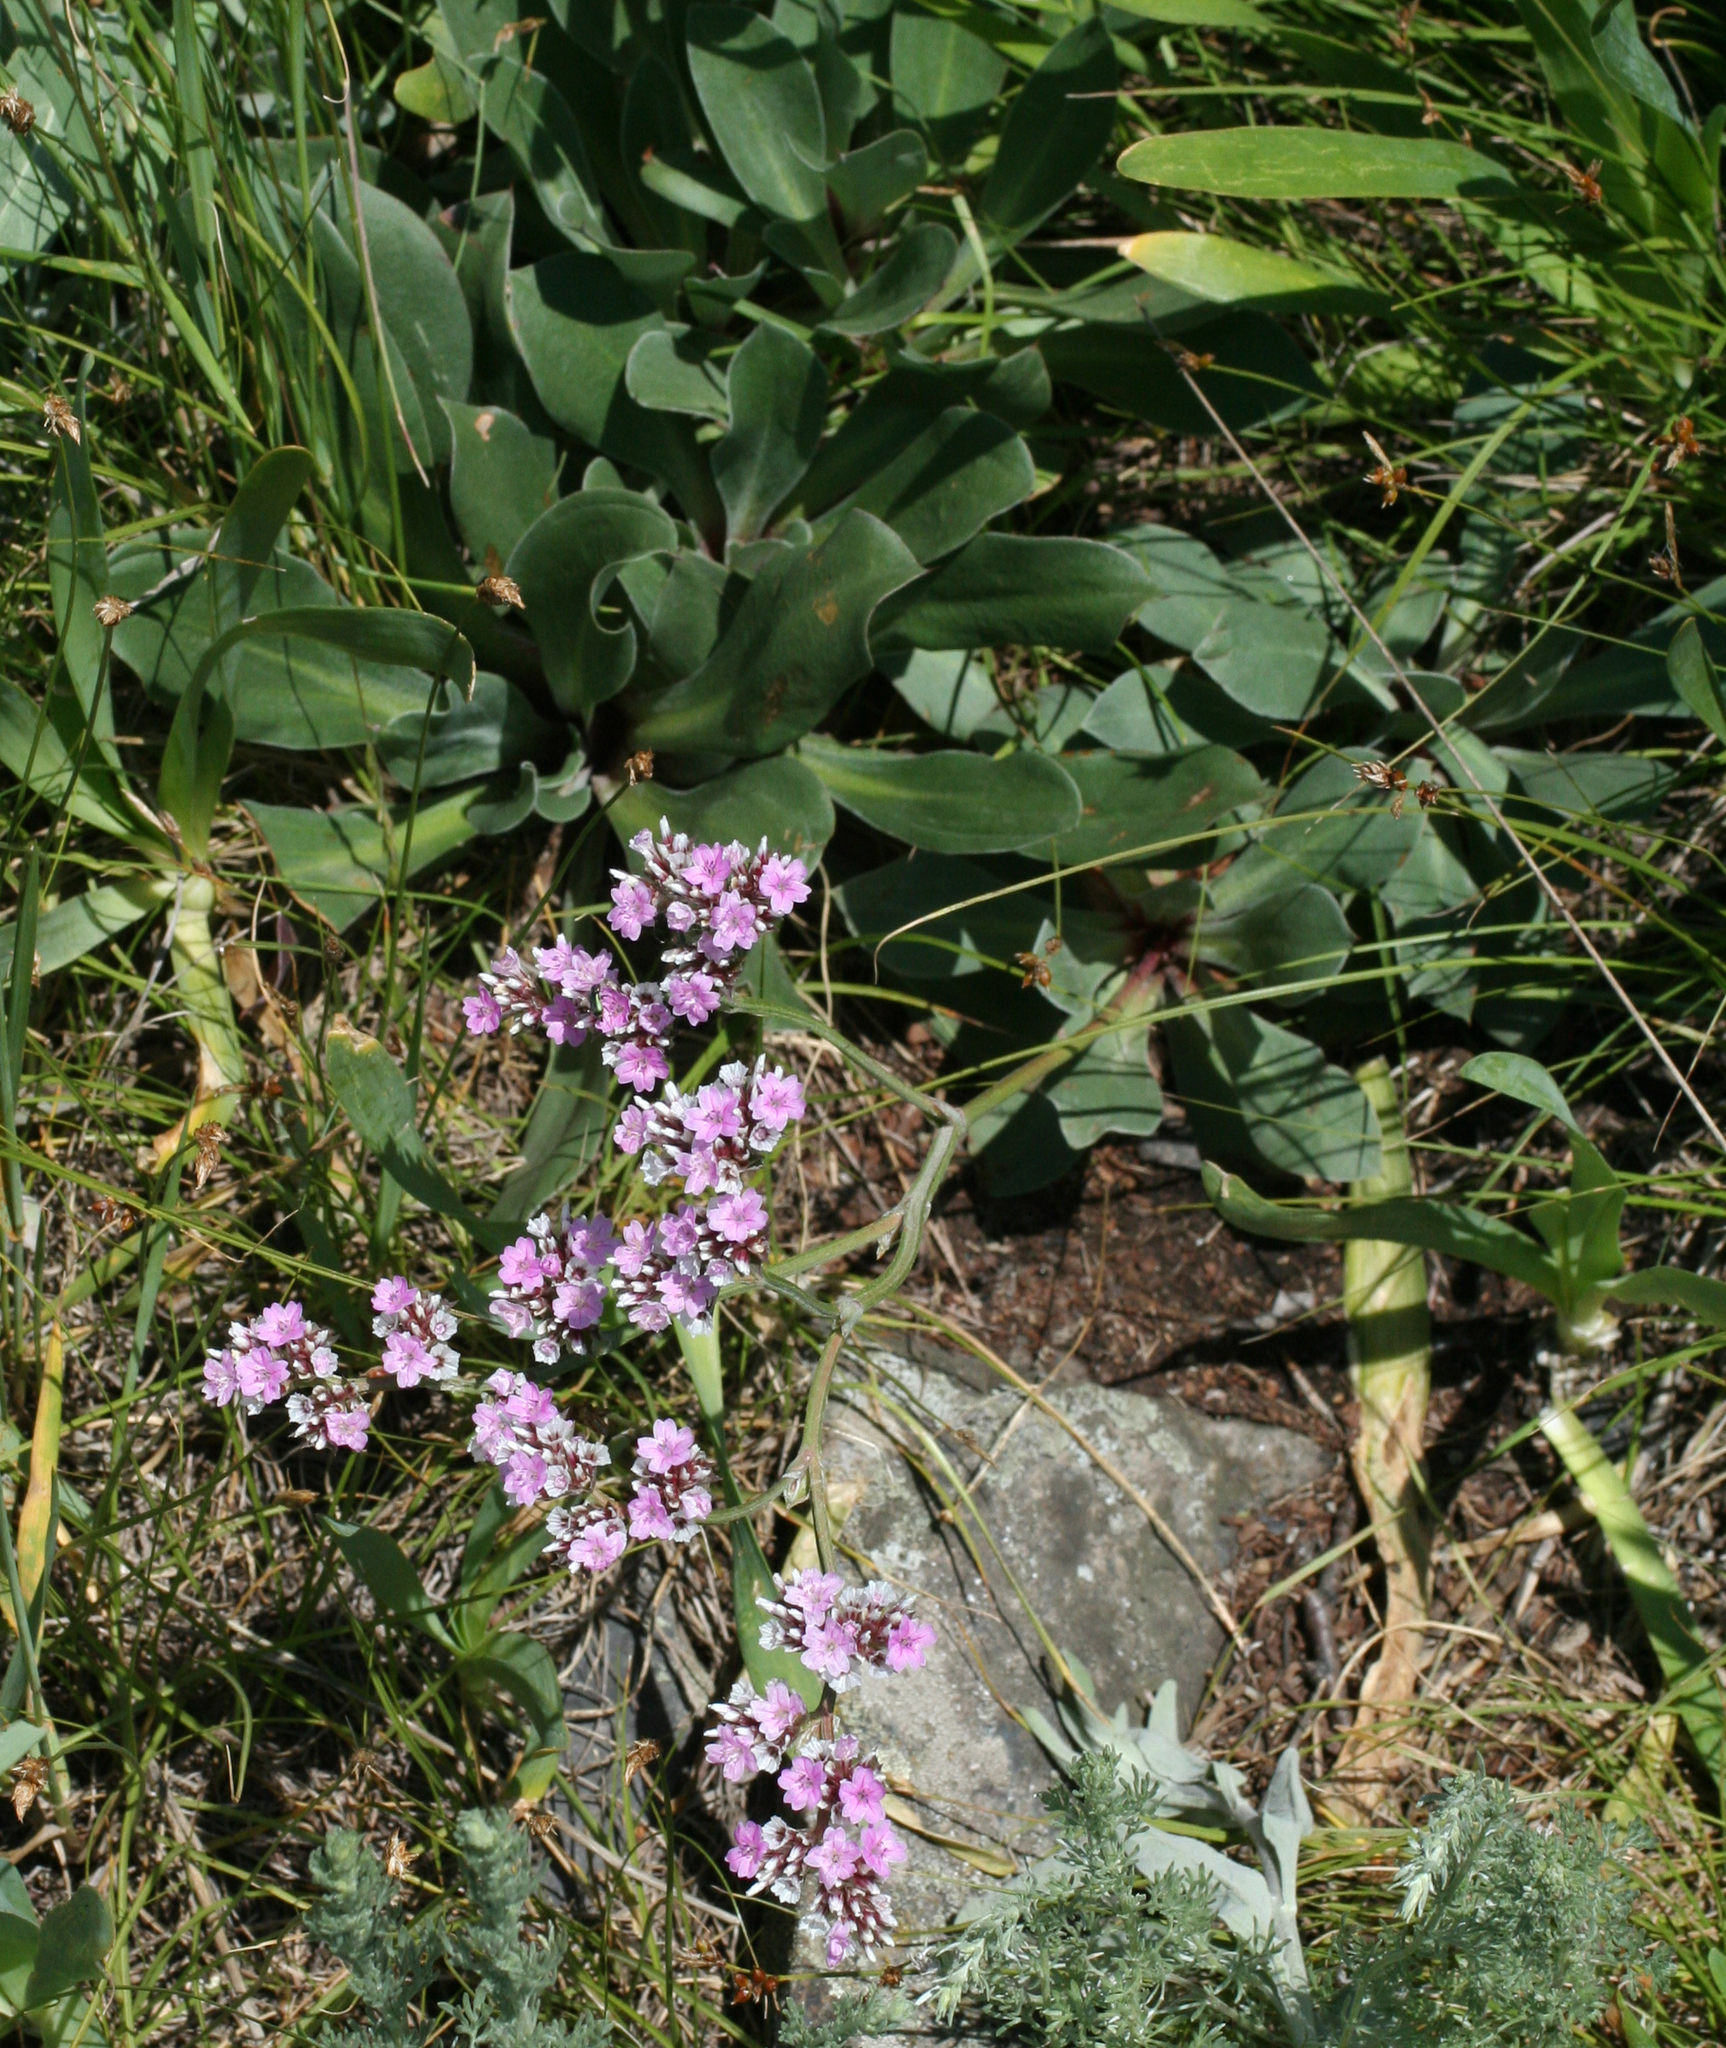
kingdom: Plantae
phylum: Tracheophyta
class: Magnoliopsida
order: Caryophyllales
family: Plumbaginaceae
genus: Goniolimon
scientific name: Goniolimon speciosum
